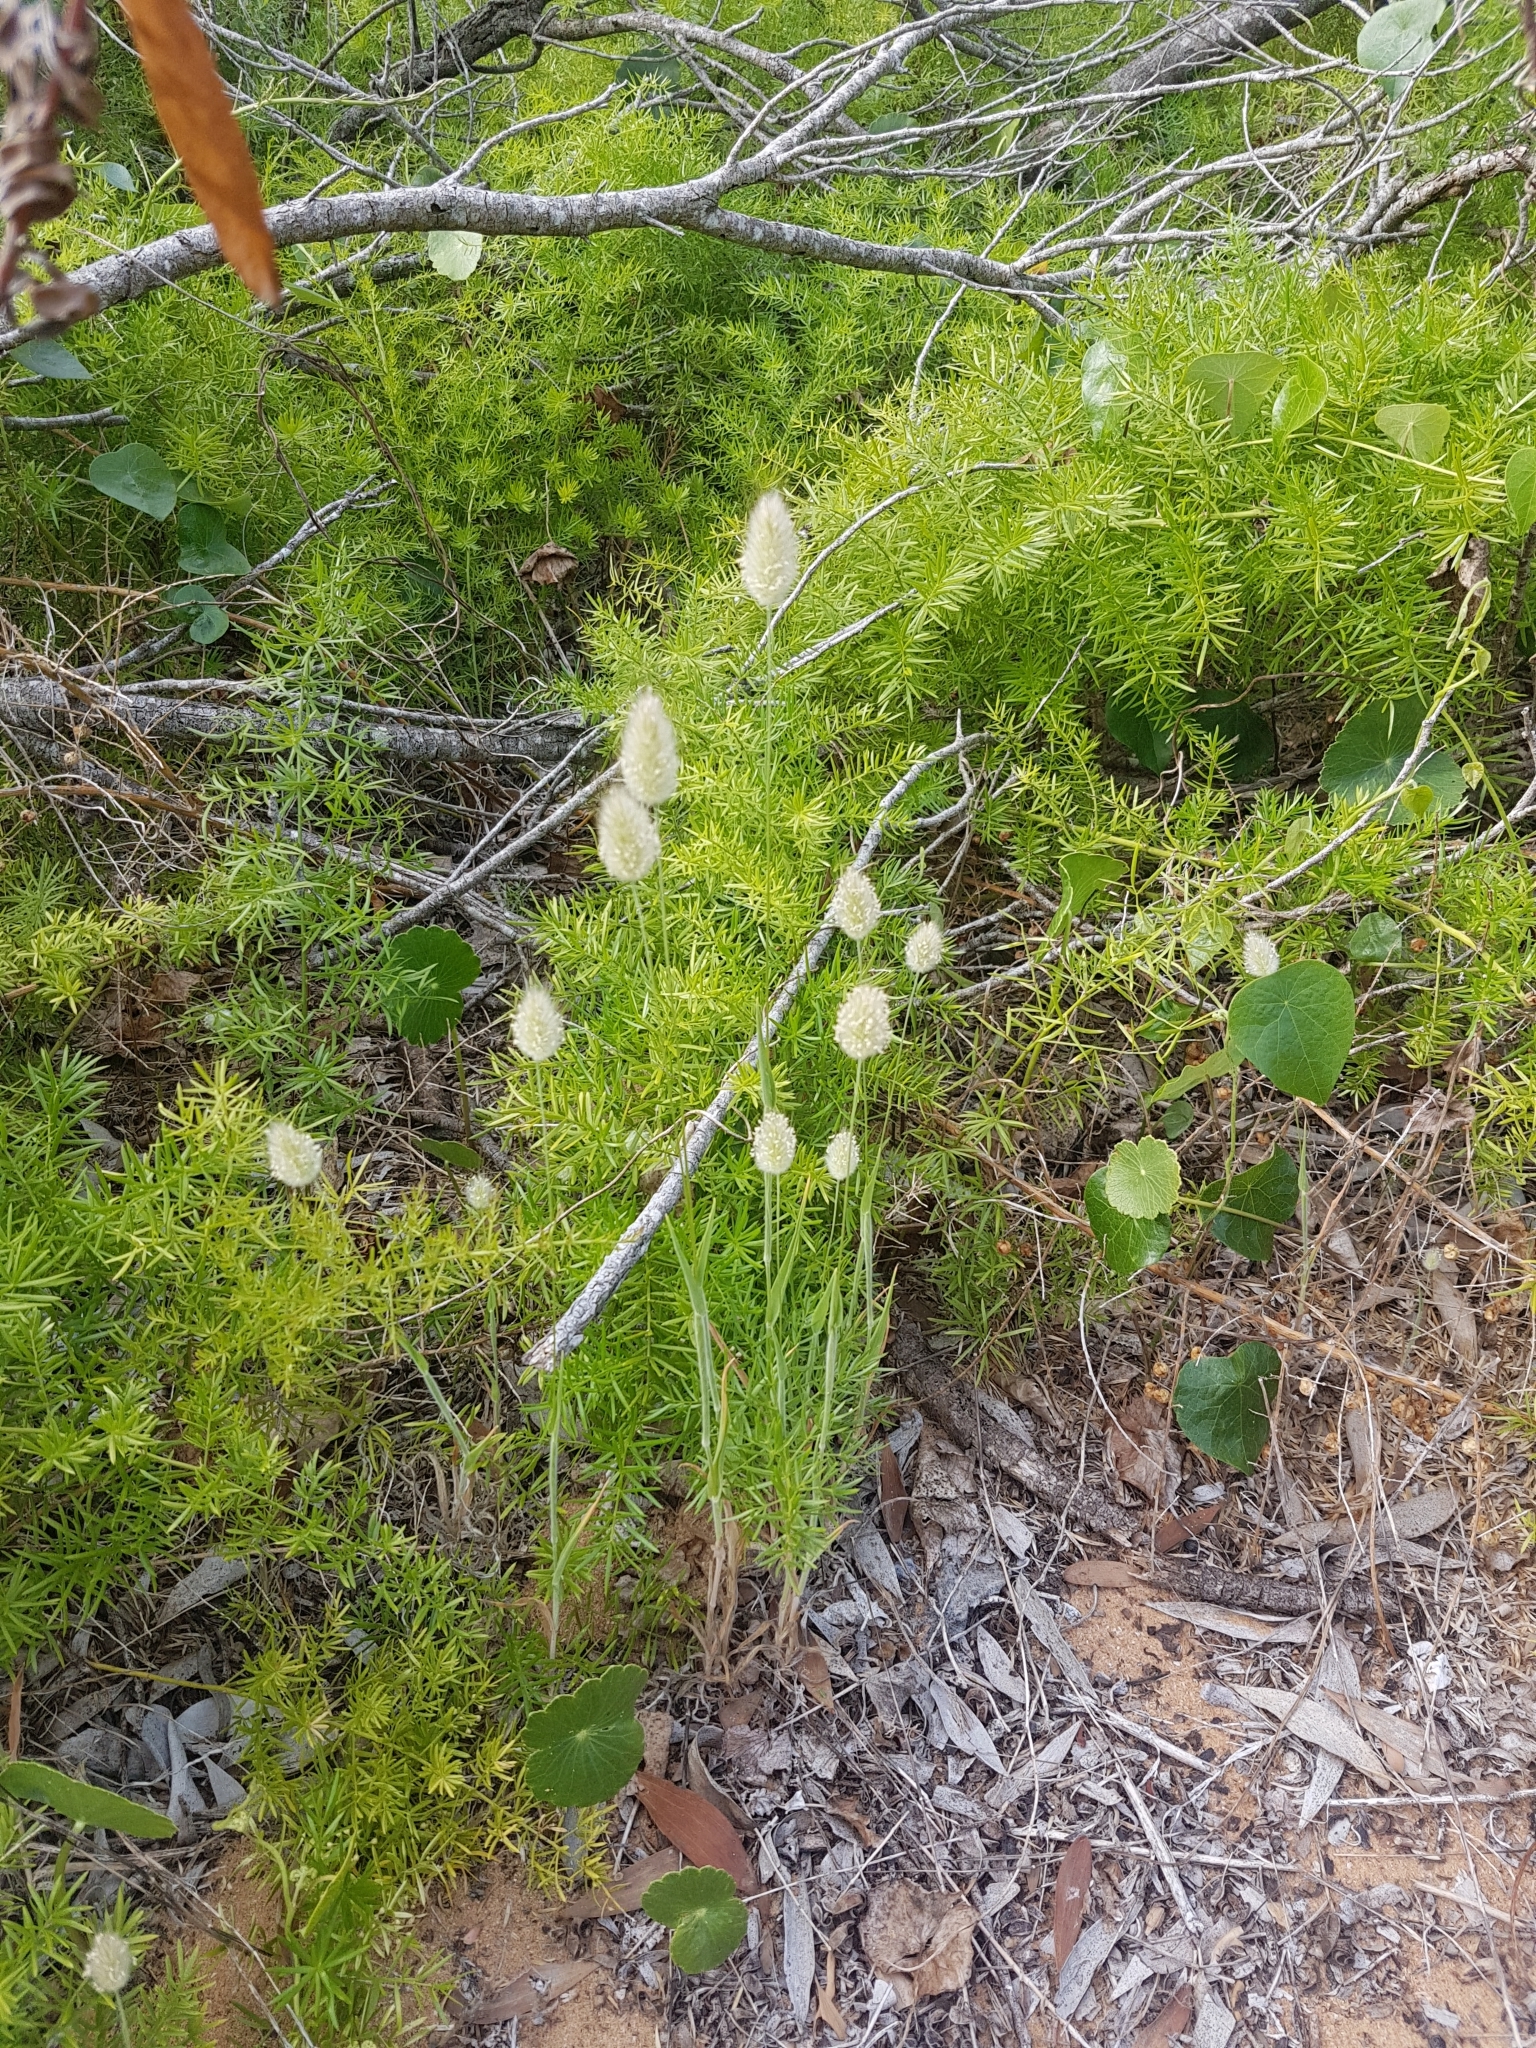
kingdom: Plantae
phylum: Tracheophyta
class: Liliopsida
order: Poales
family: Poaceae
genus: Lagurus
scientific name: Lagurus ovatus
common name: Hare's-tail
